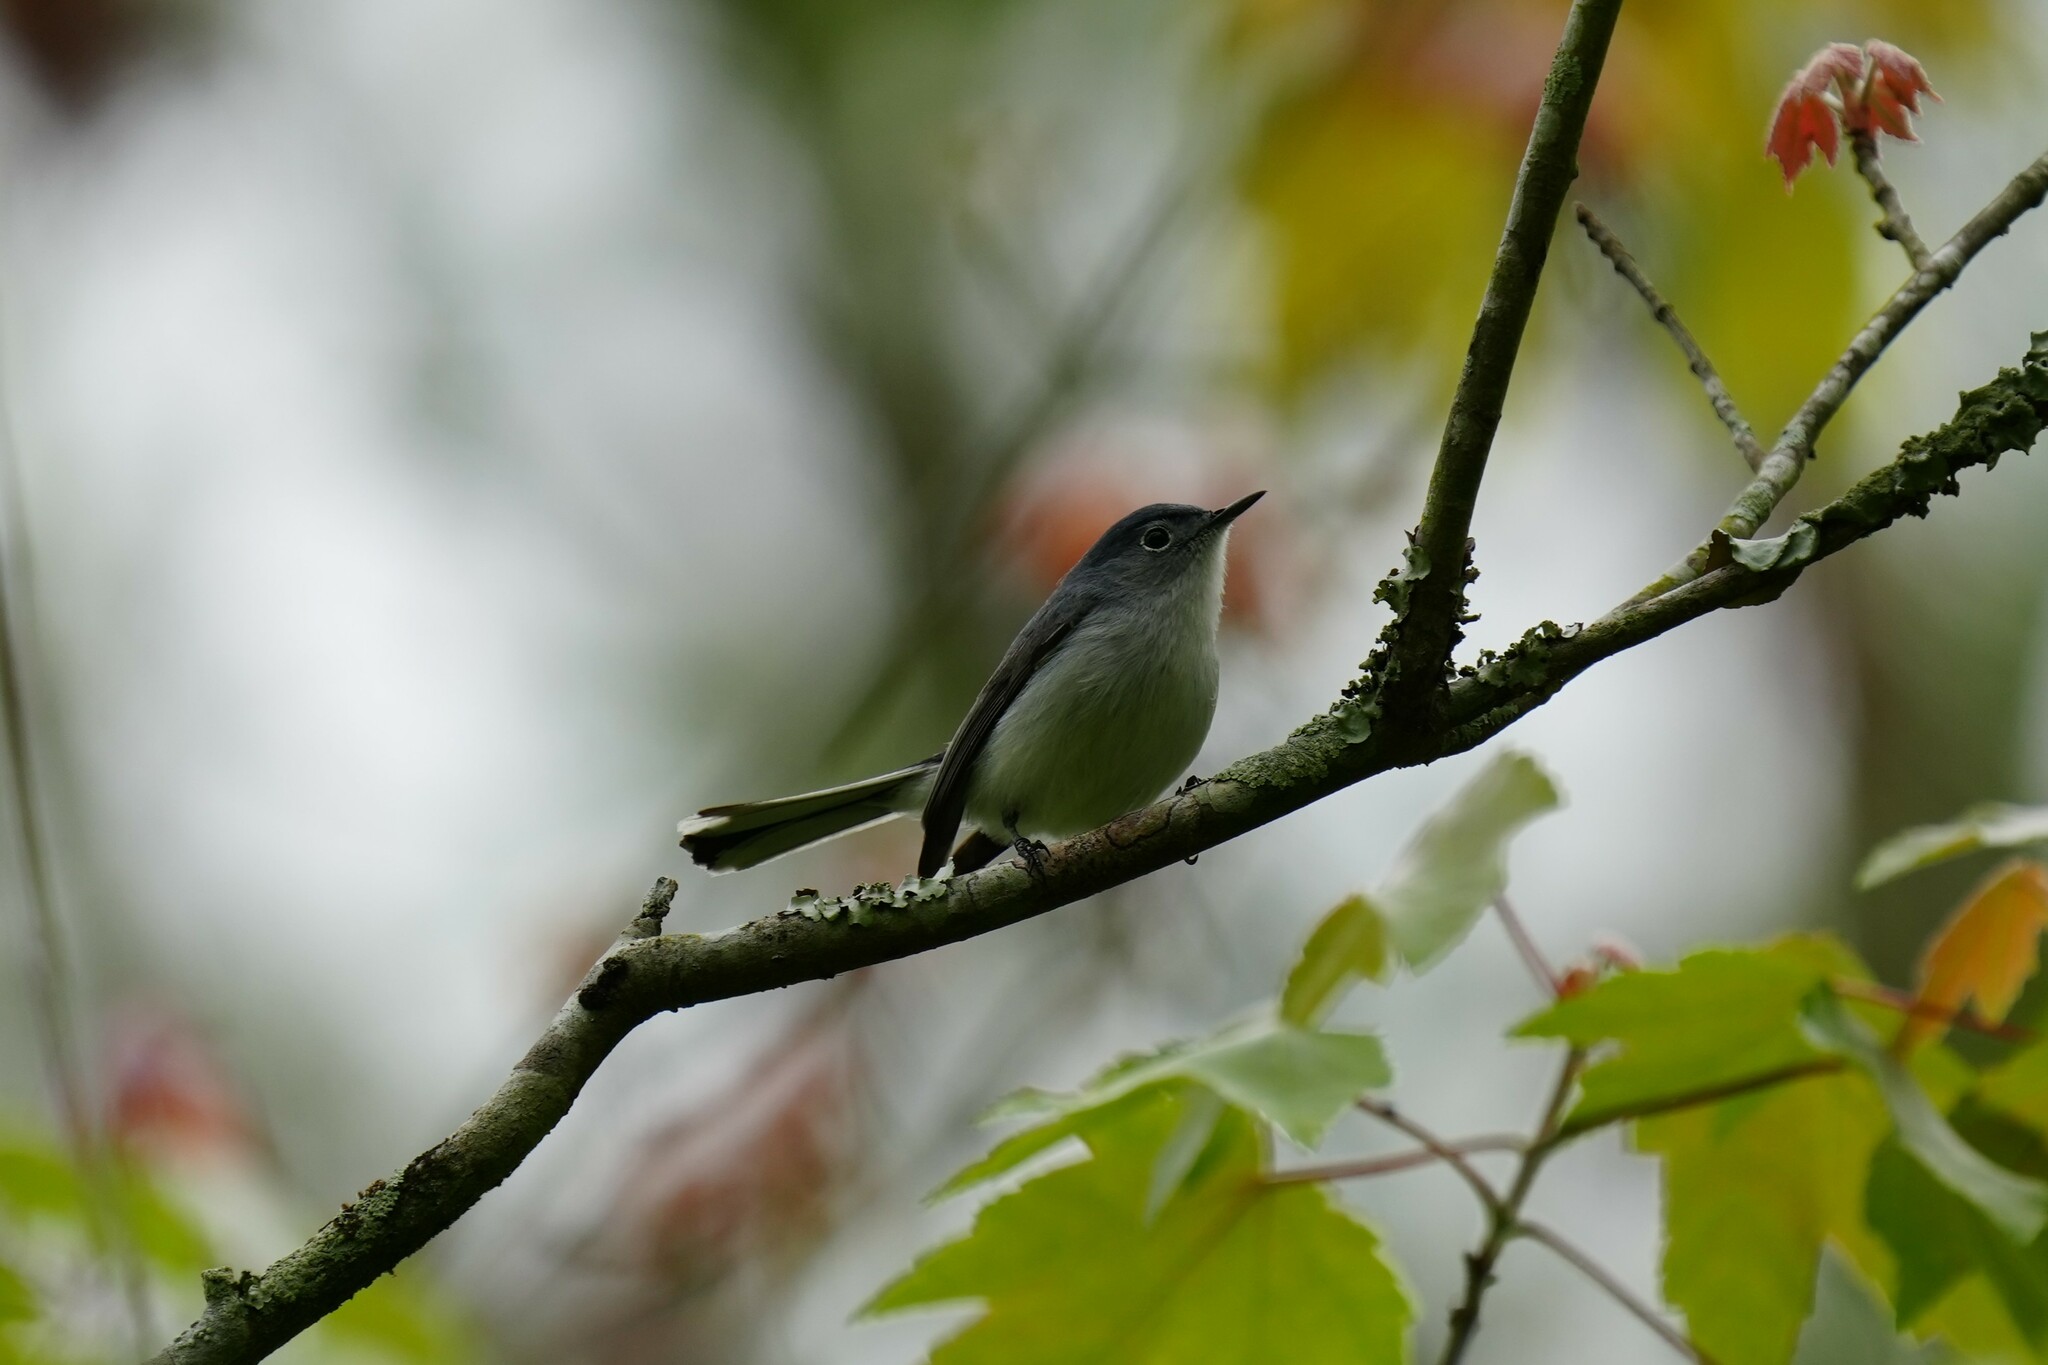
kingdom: Animalia
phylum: Chordata
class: Aves
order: Passeriformes
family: Polioptilidae
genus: Polioptila
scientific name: Polioptila caerulea
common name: Blue-gray gnatcatcher
